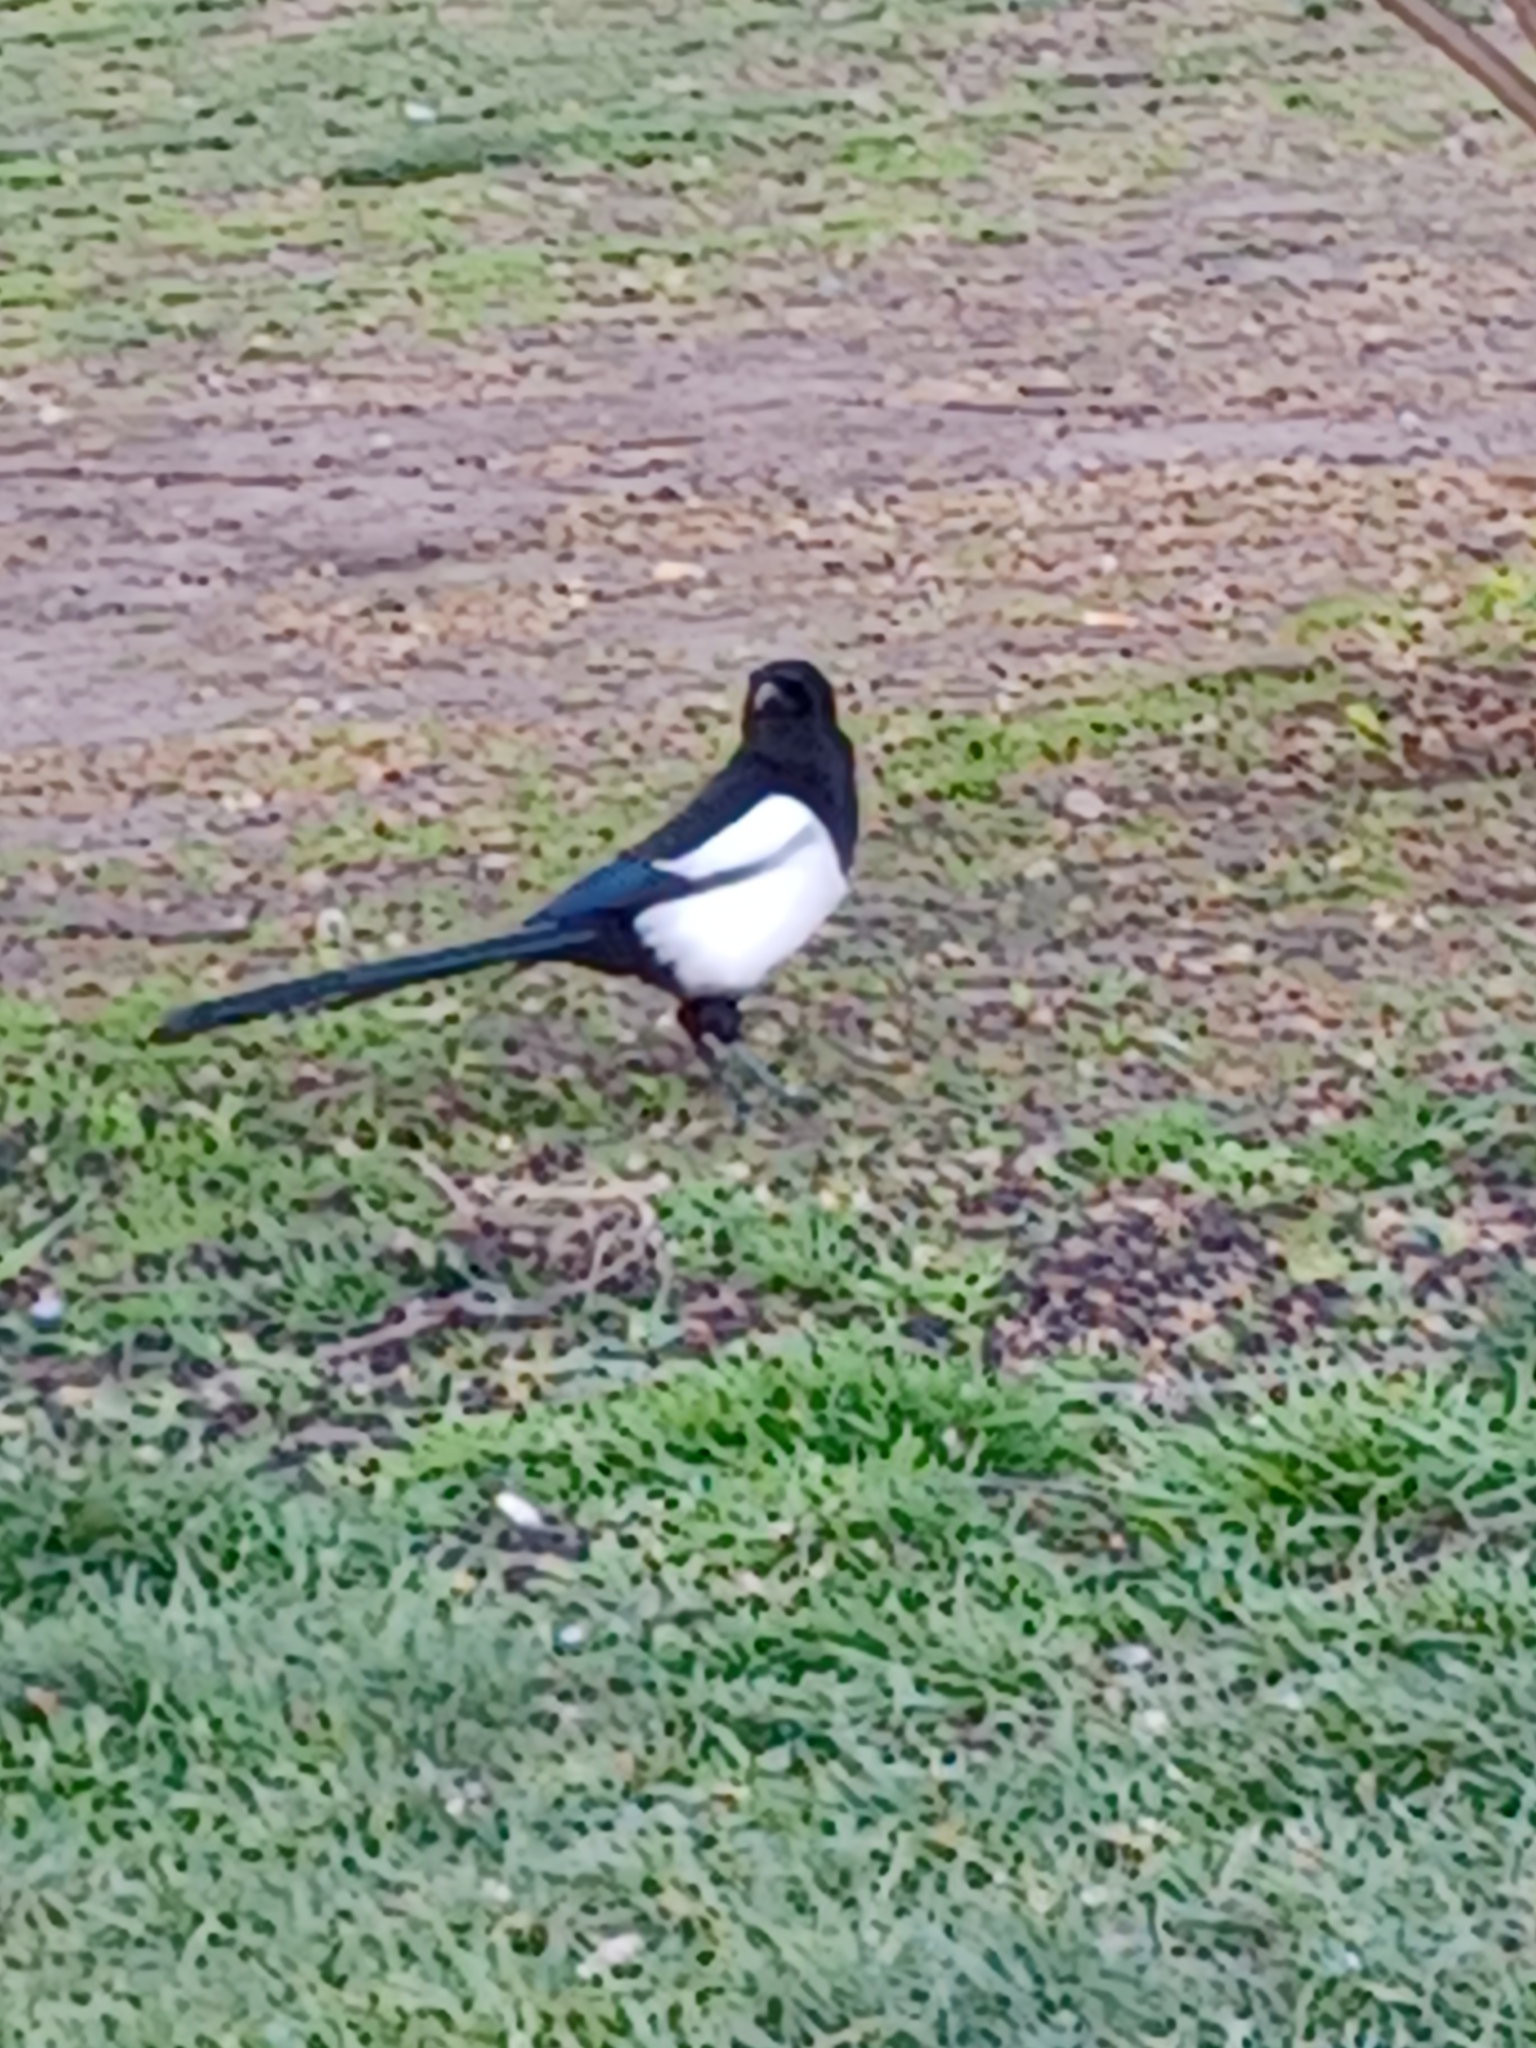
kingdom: Animalia
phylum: Chordata
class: Aves
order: Passeriformes
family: Corvidae
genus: Pica
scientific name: Pica pica
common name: Eurasian magpie
